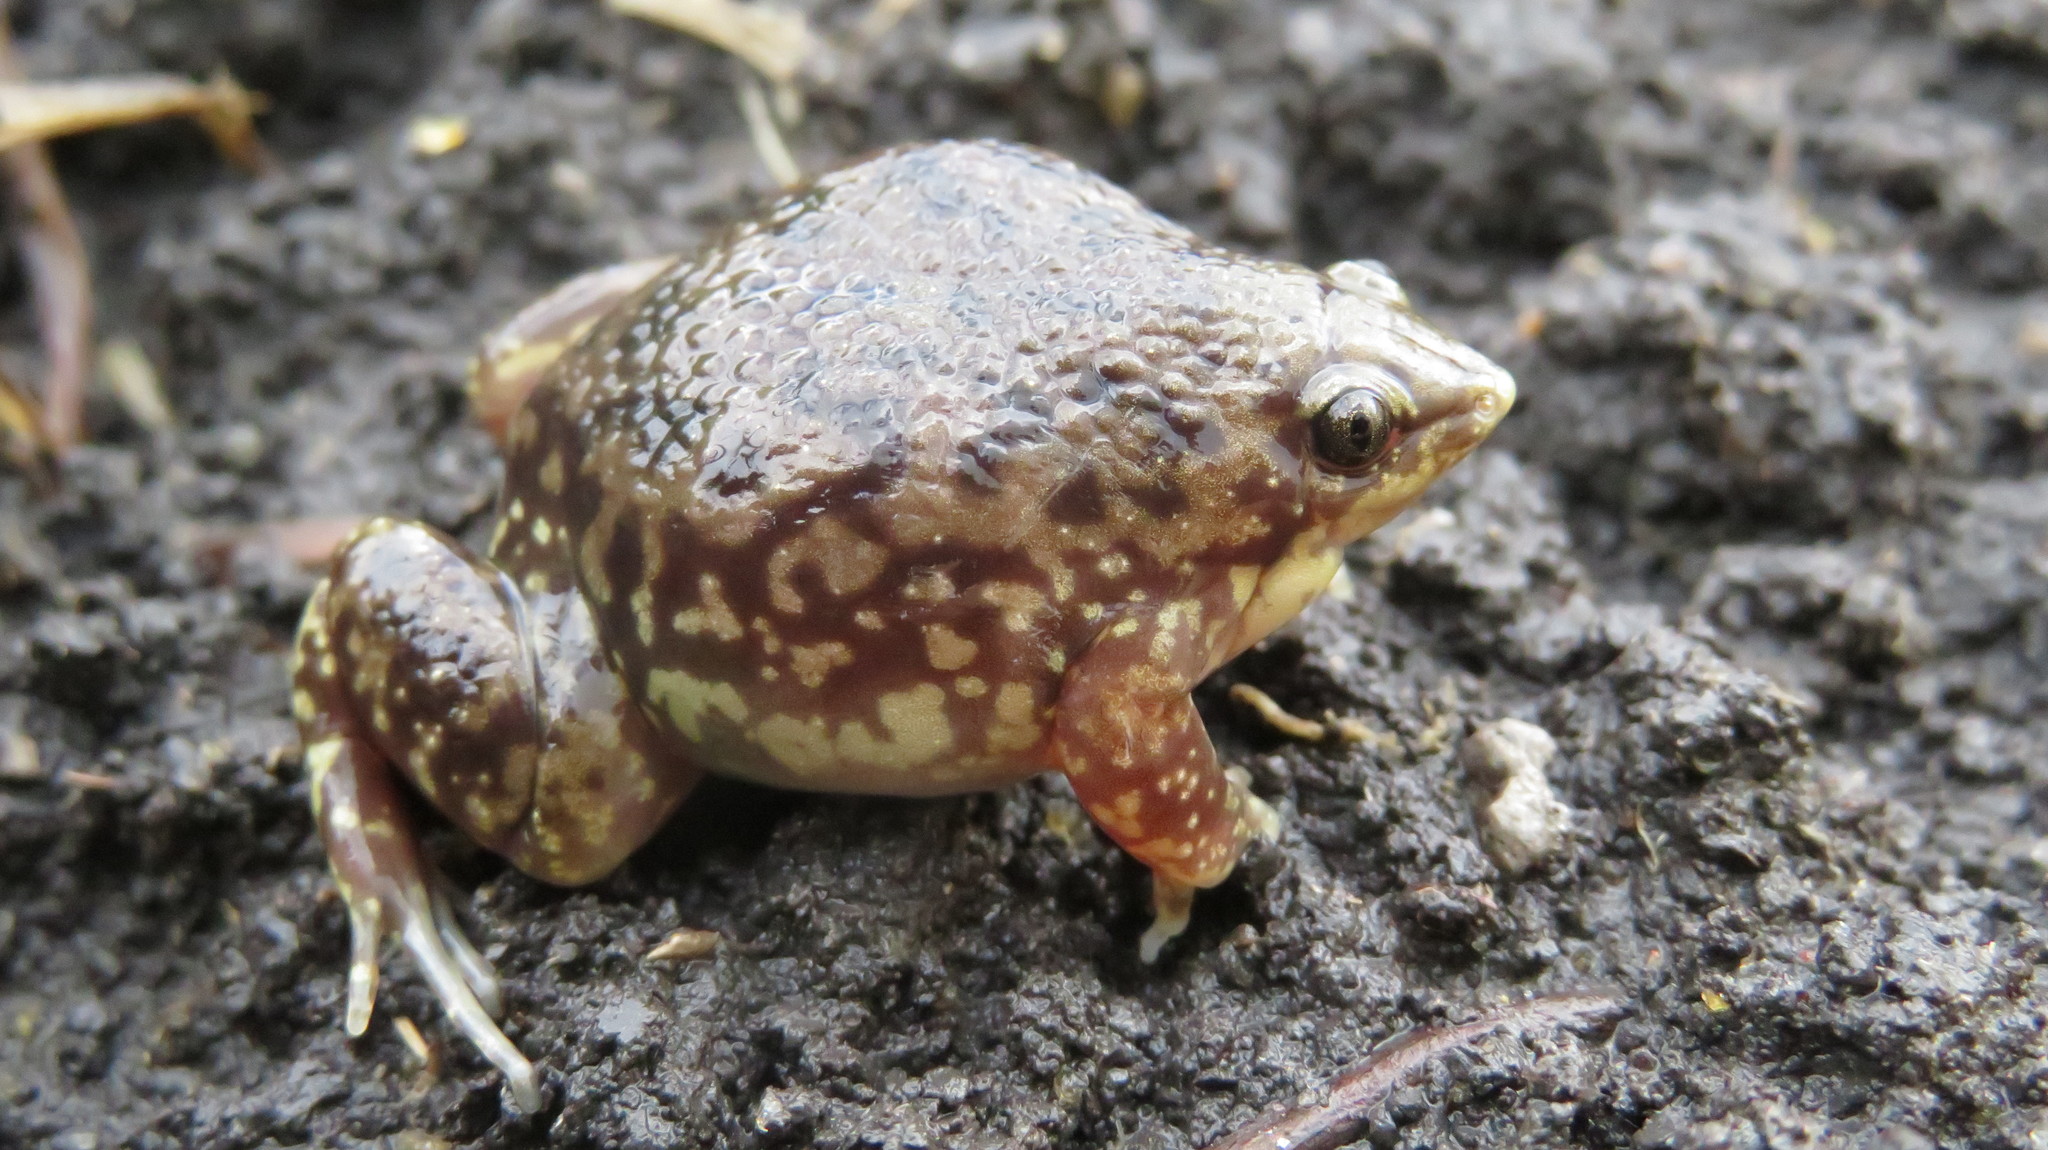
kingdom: Animalia
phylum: Chordata
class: Amphibia
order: Anura
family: Hemisotidae
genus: Hemisus
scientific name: Hemisus marmoratus
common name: Mottled shovel-nosed frog
